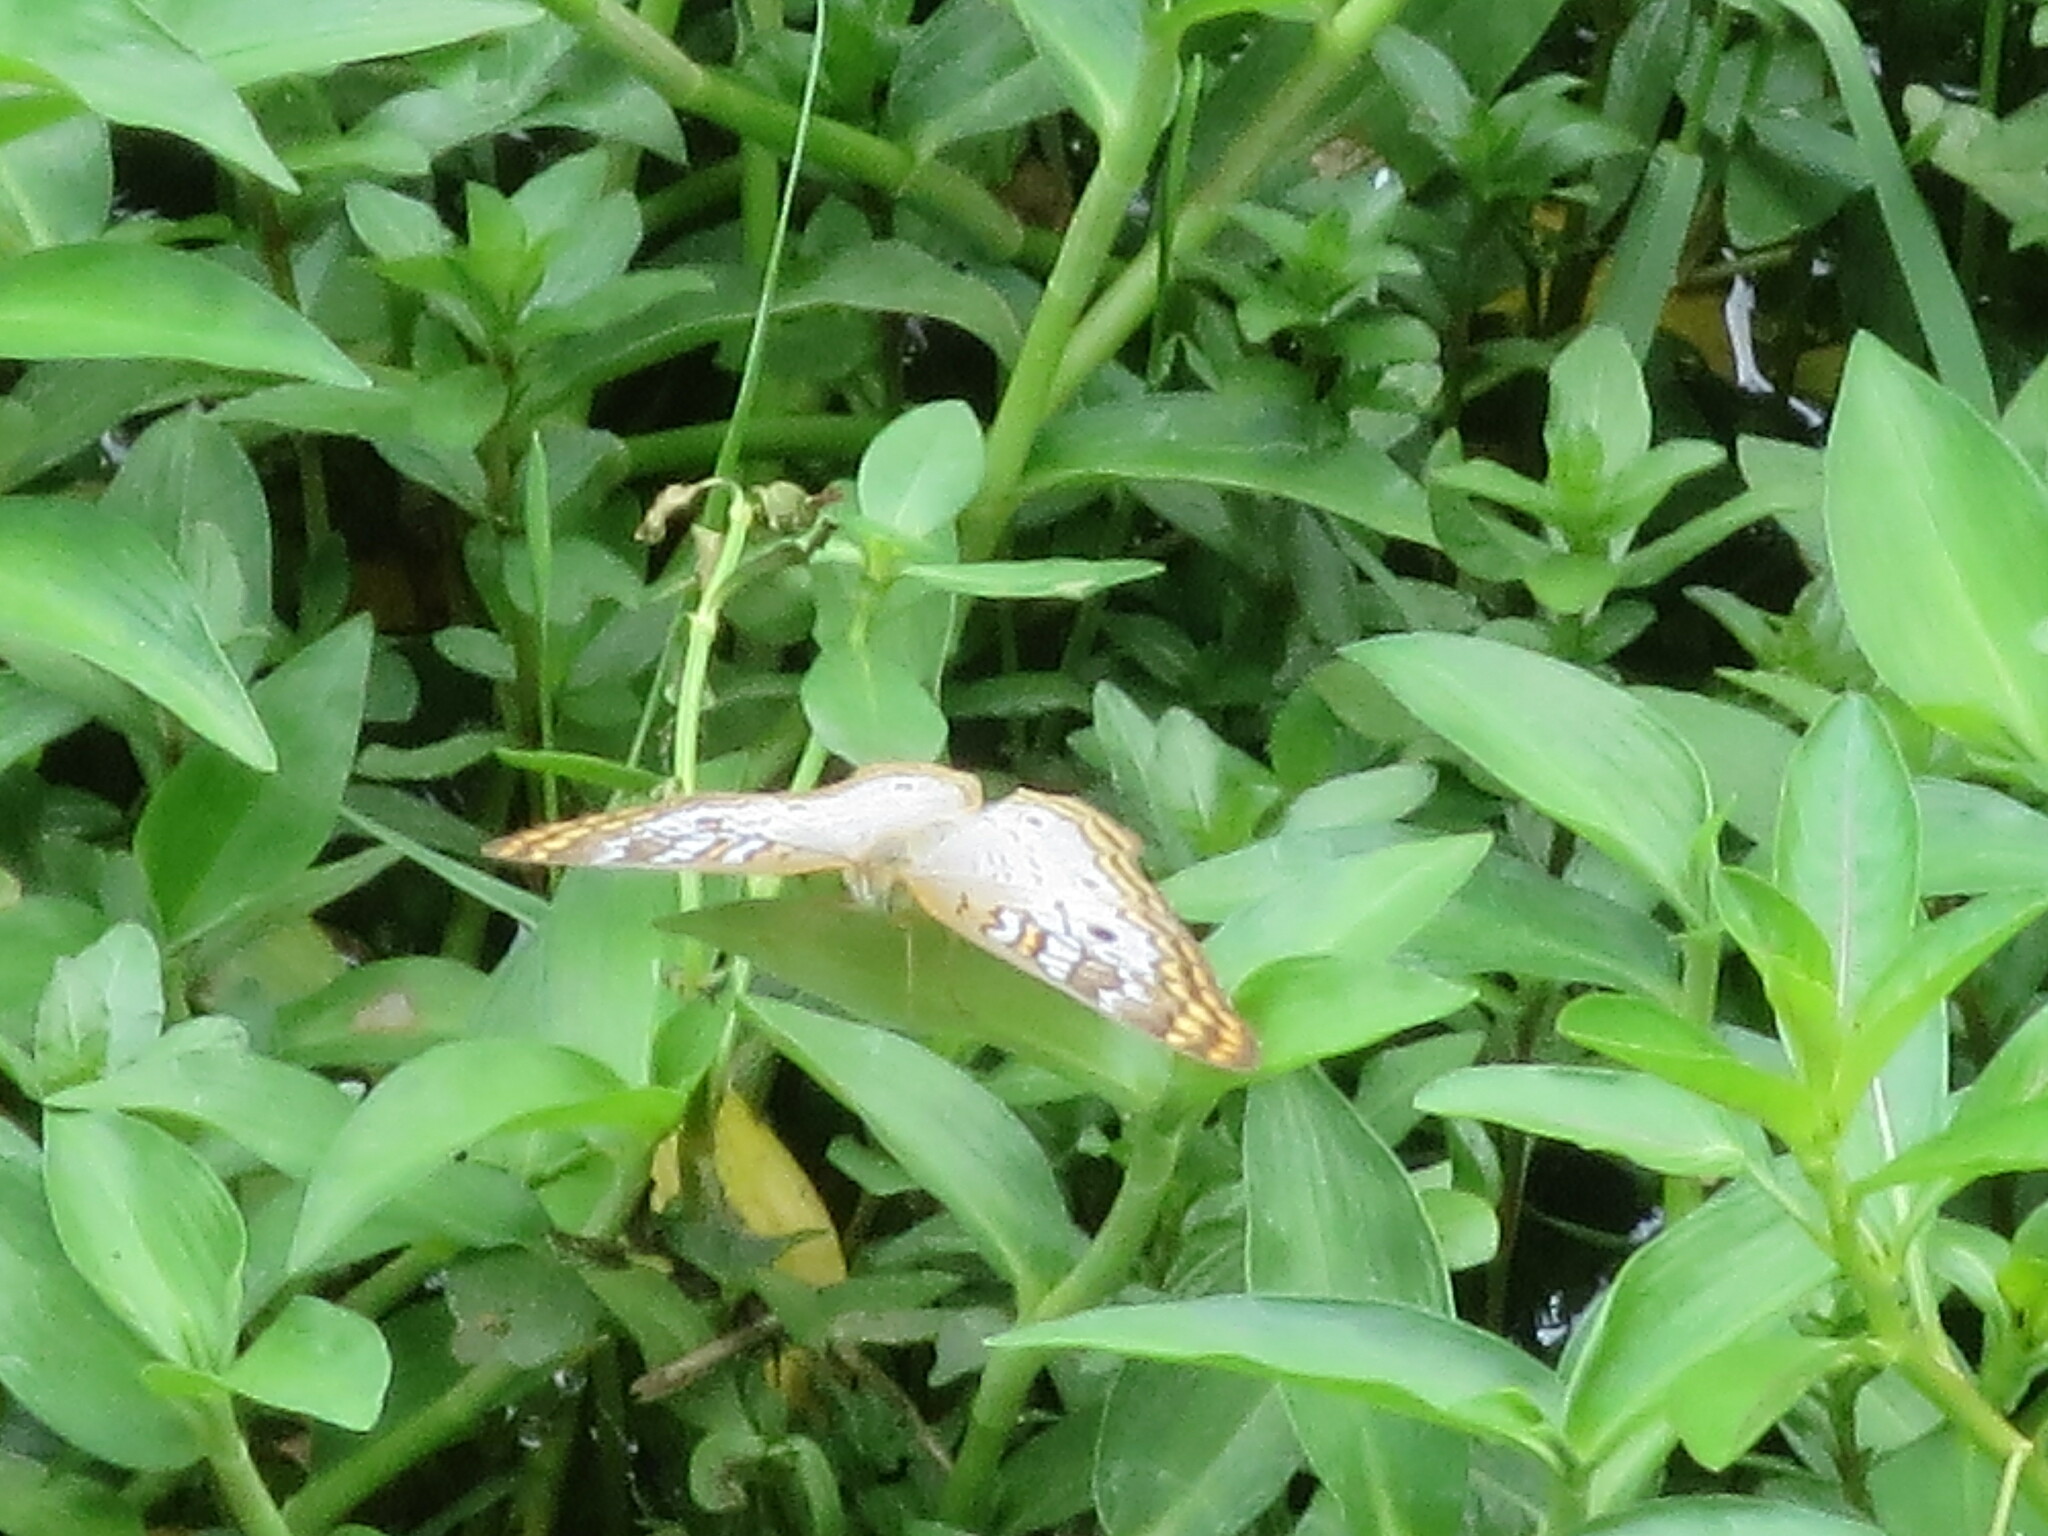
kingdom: Animalia
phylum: Arthropoda
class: Insecta
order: Lepidoptera
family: Nymphalidae
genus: Anartia
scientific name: Anartia jatrophae
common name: White peacock
